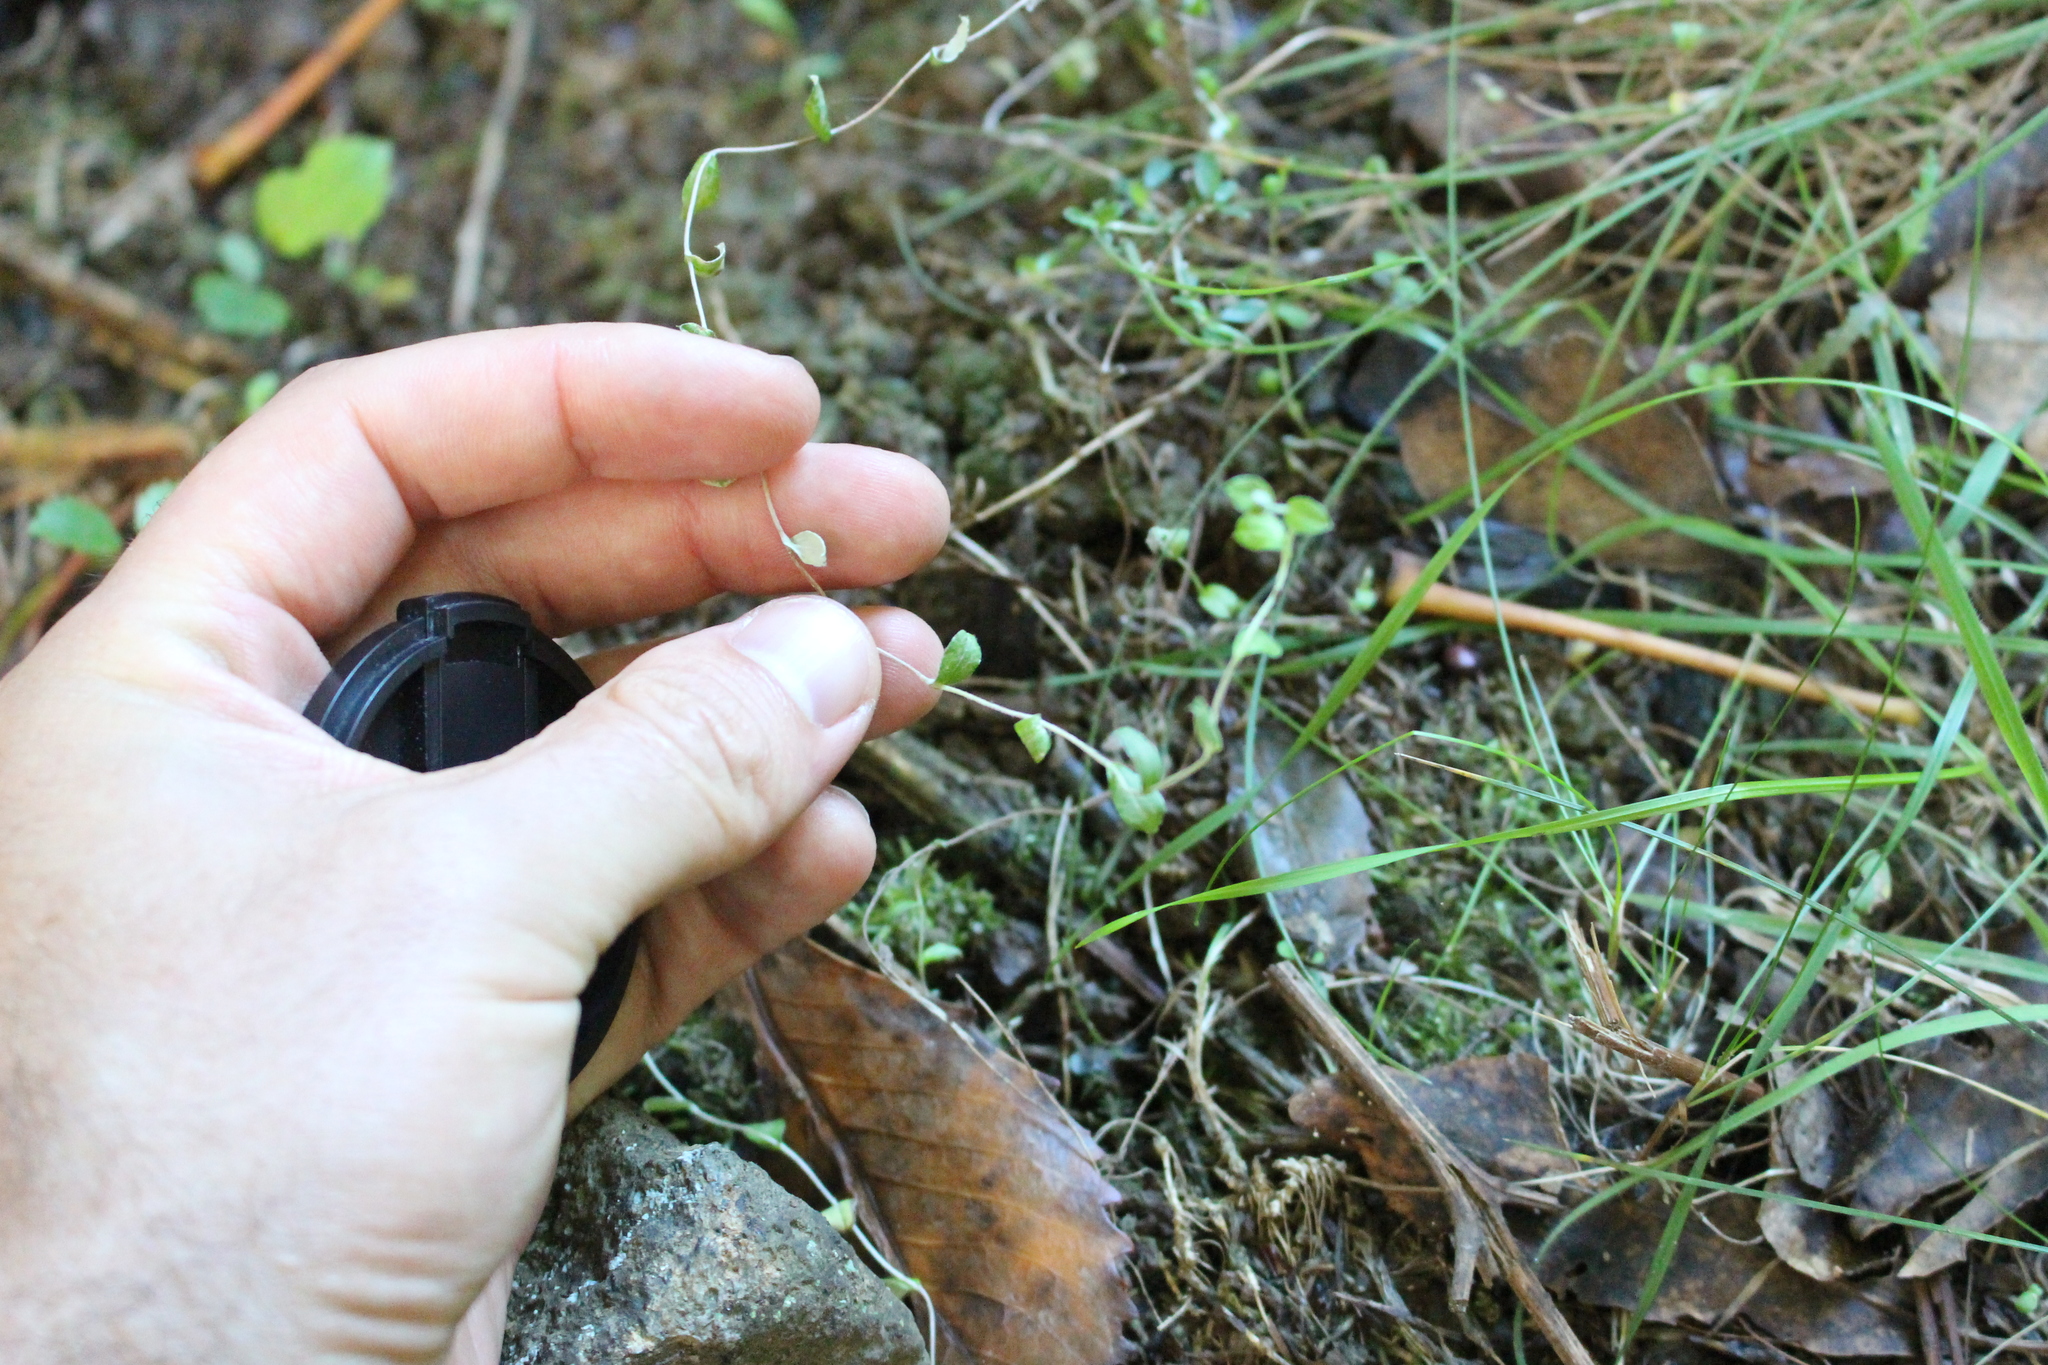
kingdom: Plantae
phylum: Tracheophyta
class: Magnoliopsida
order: Asterales
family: Asteraceae
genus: Helichrysum
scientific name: Helichrysum filicaule
